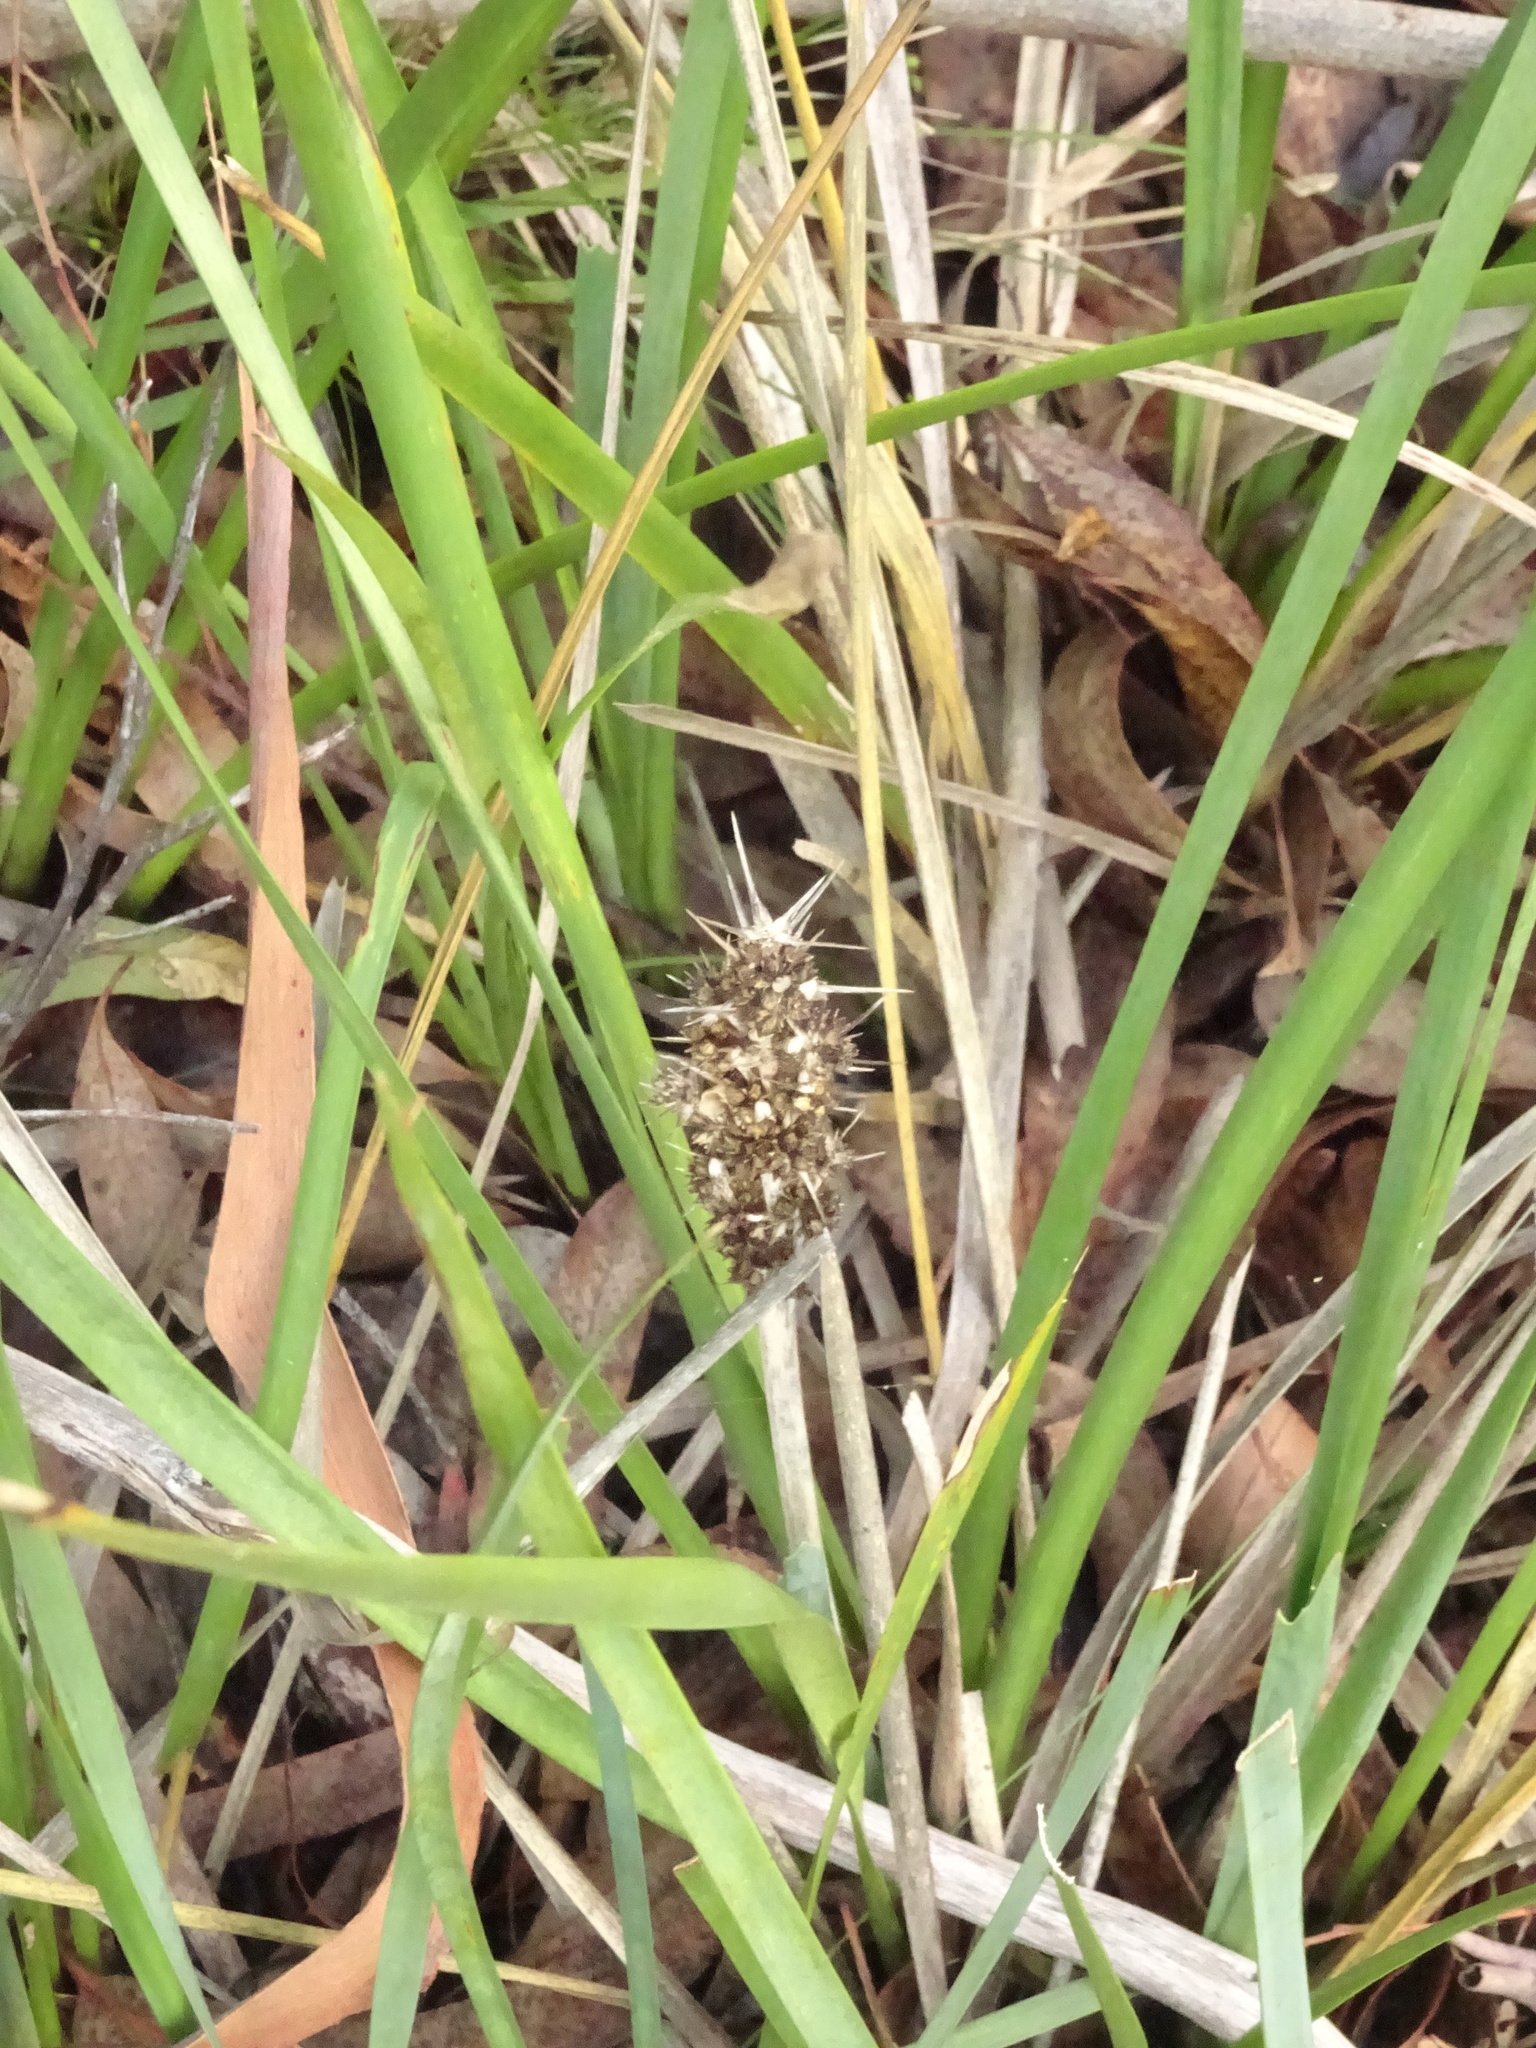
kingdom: Plantae
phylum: Tracheophyta
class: Liliopsida
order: Asparagales
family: Asparagaceae
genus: Lomandra
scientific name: Lomandra longifolia
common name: Longleaf mat-rush
